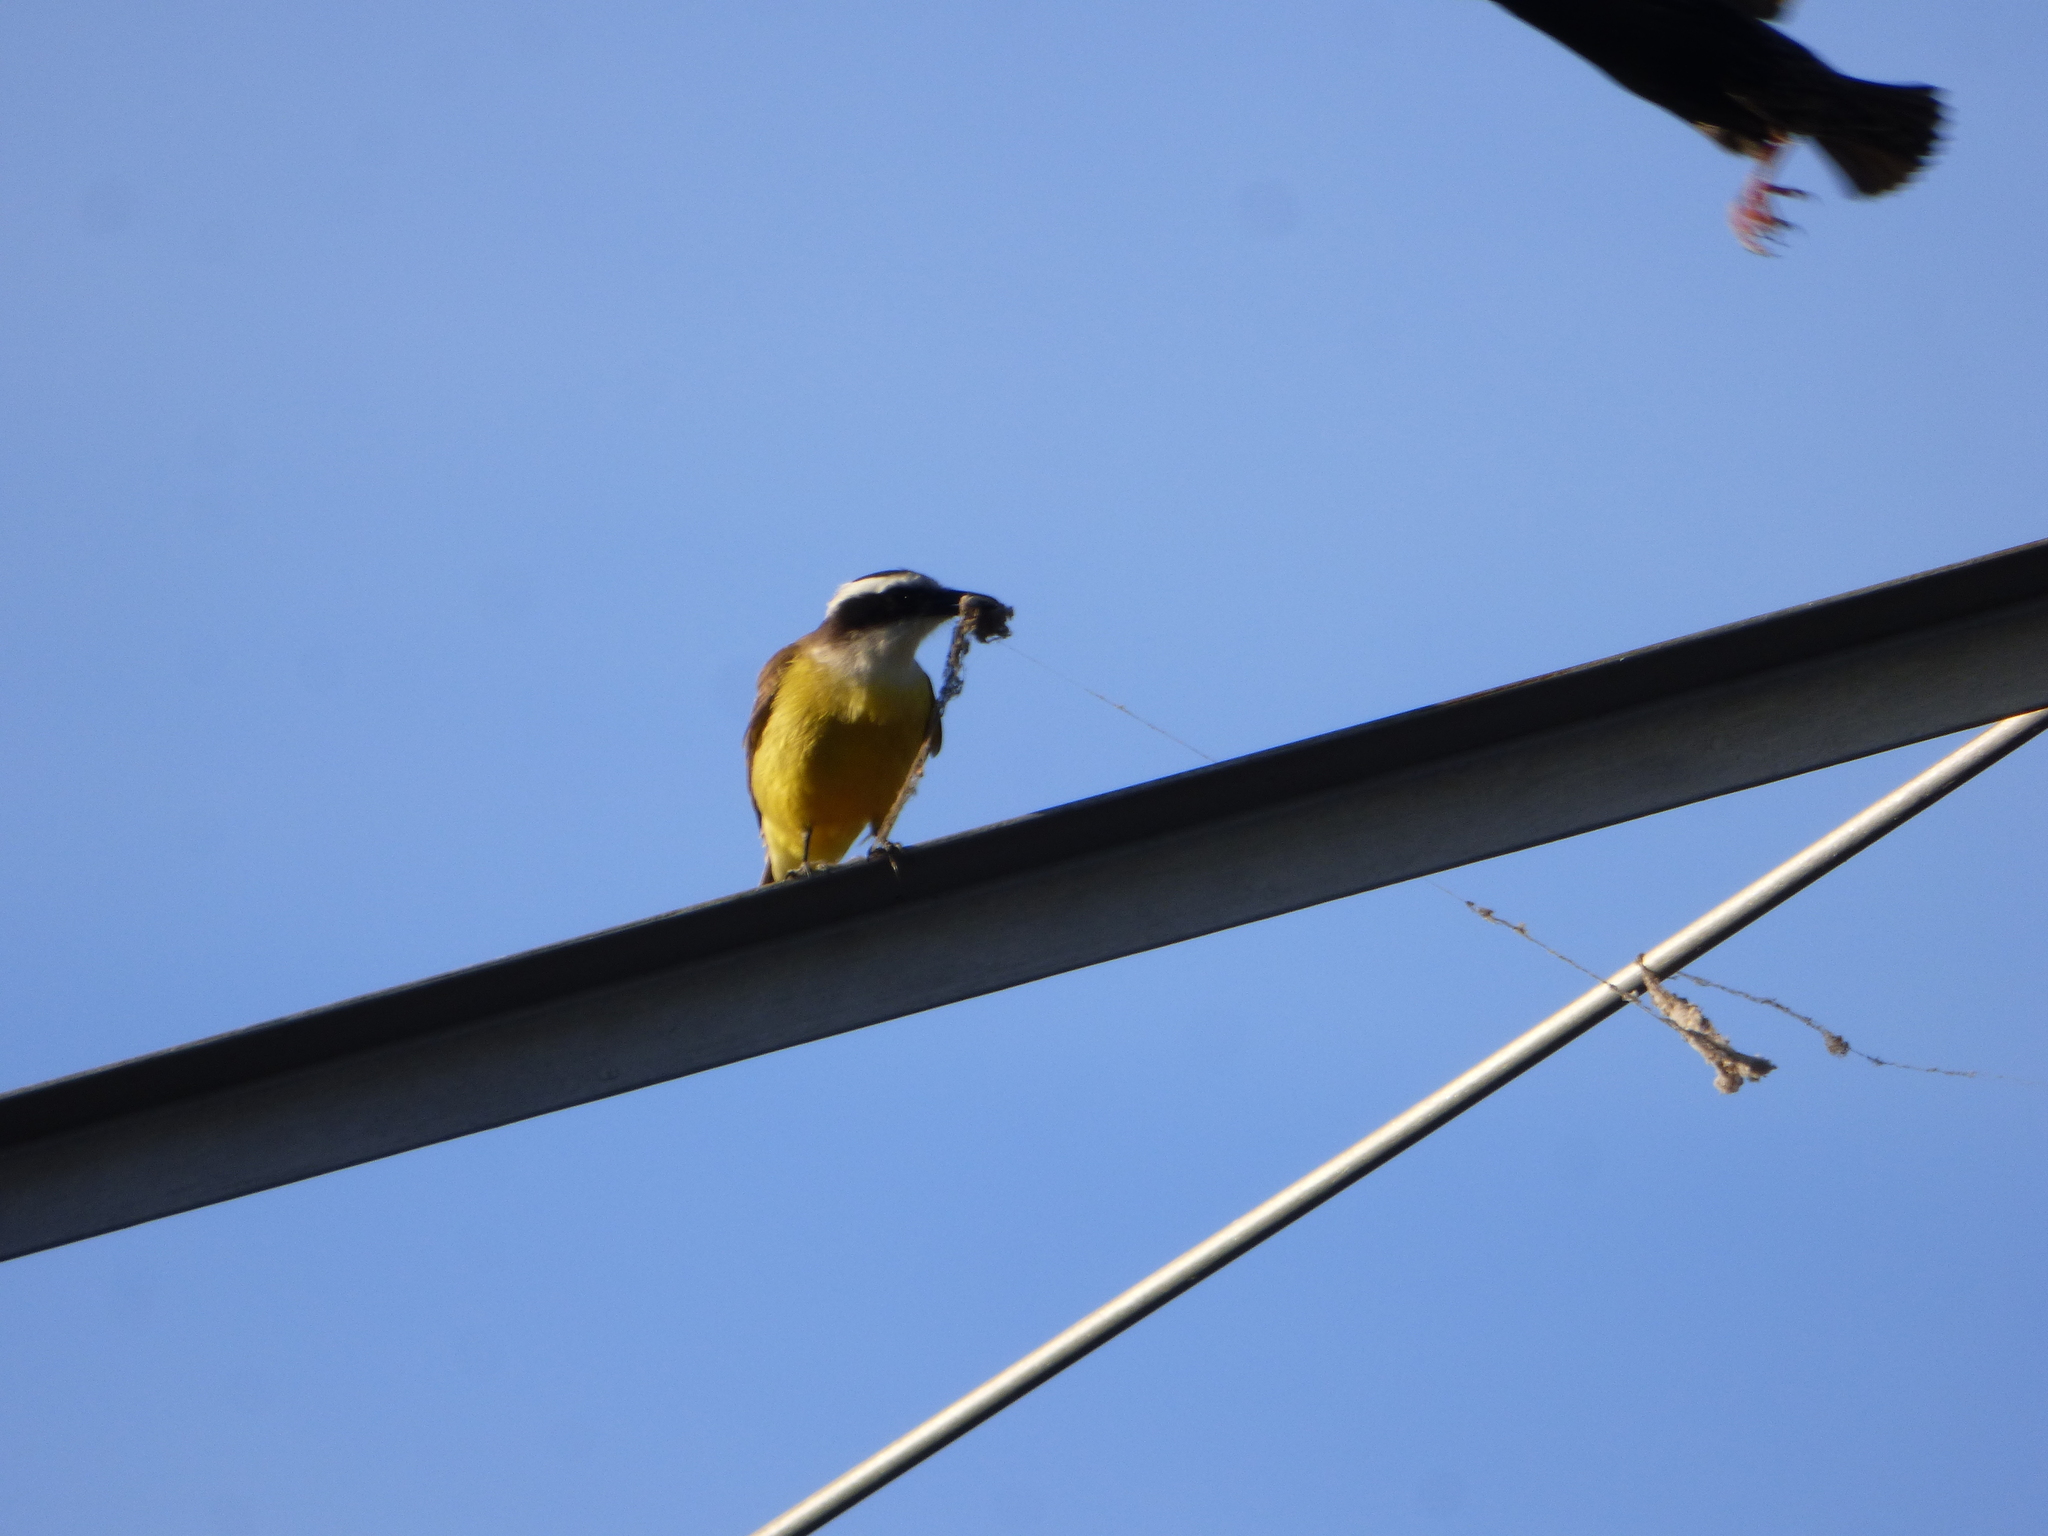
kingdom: Animalia
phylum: Chordata
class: Aves
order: Passeriformes
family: Tyrannidae
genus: Pitangus
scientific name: Pitangus sulphuratus
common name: Great kiskadee
